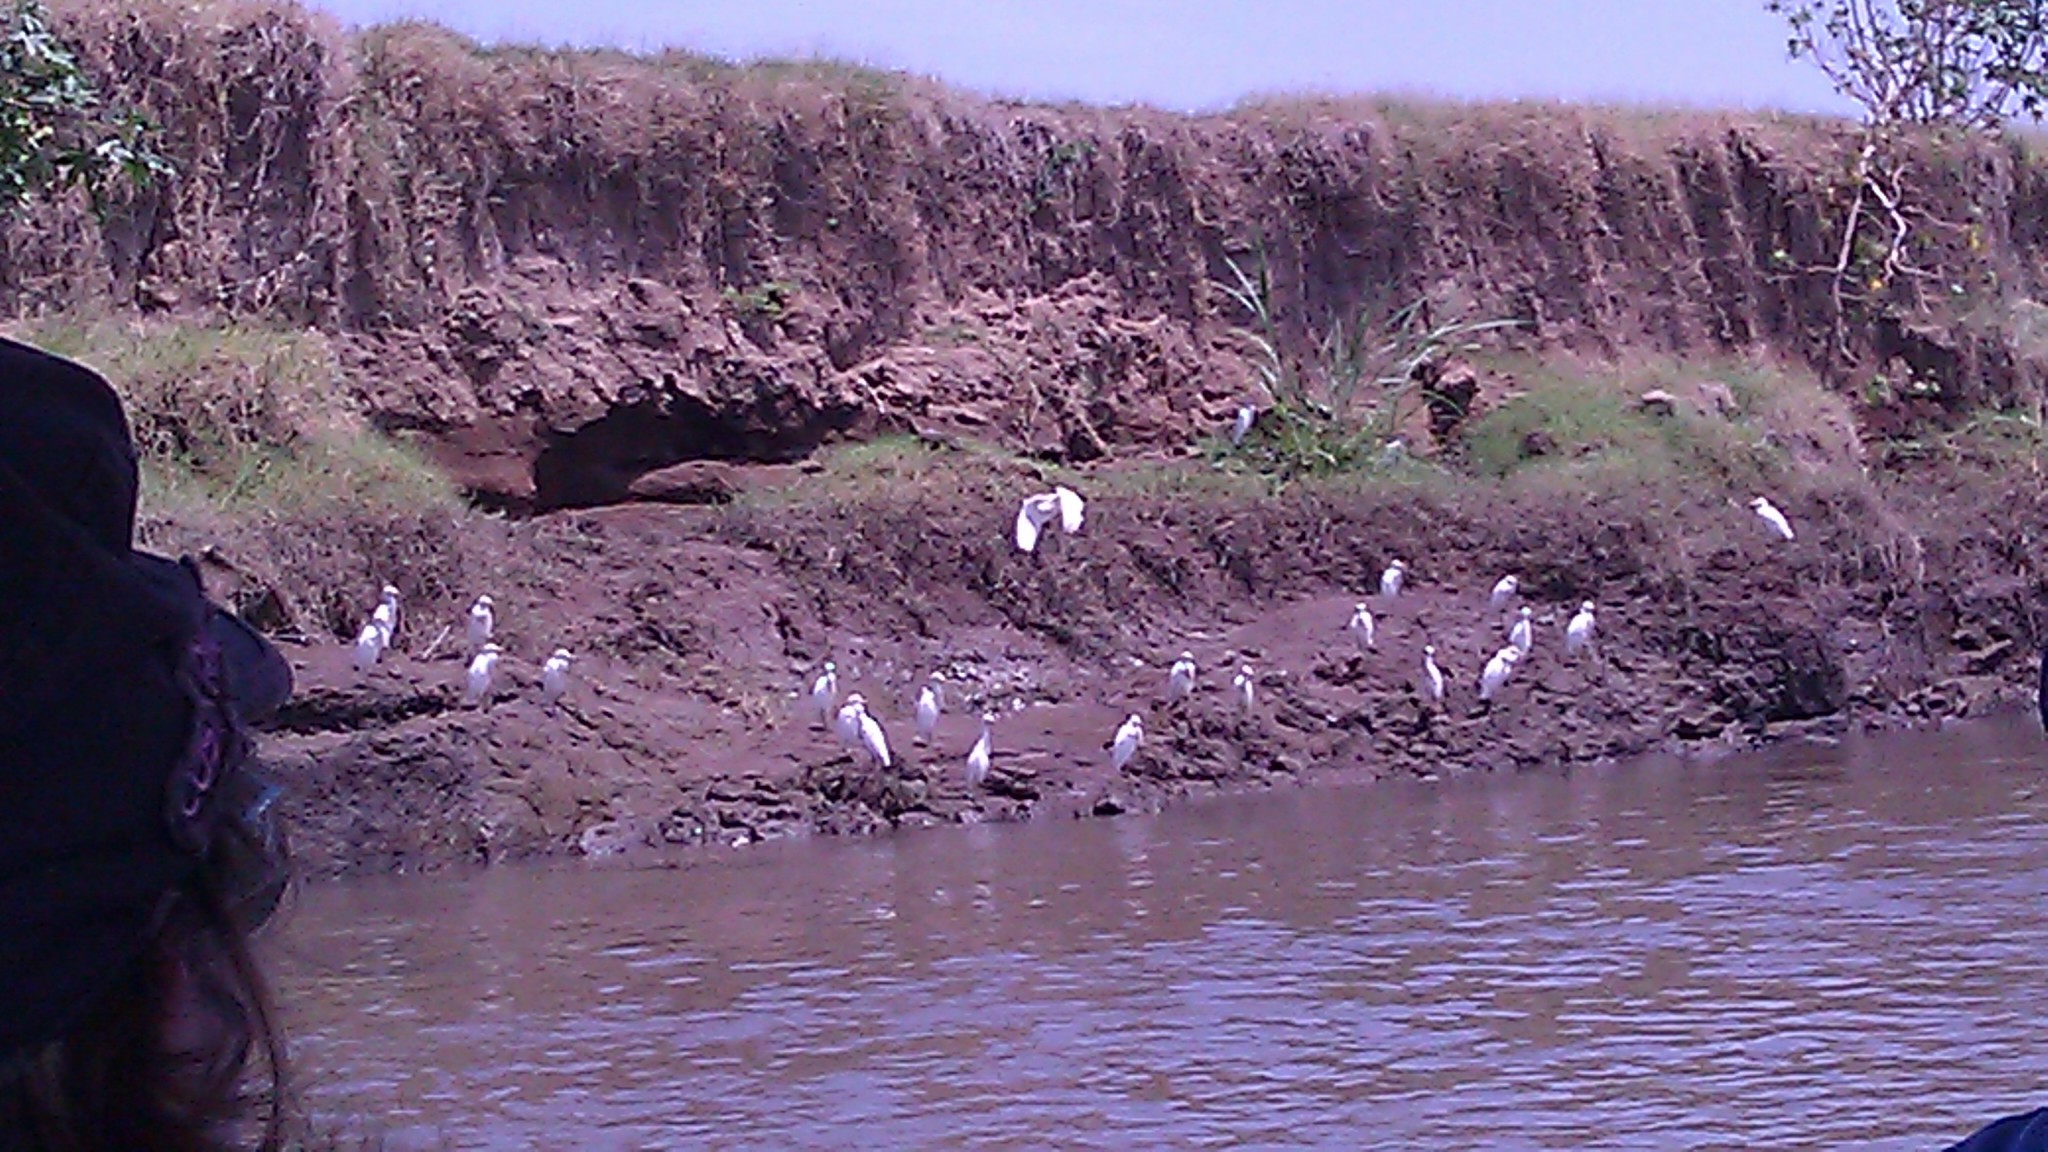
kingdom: Animalia
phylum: Chordata
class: Aves
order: Pelecaniformes
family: Ardeidae
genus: Bubulcus
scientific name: Bubulcus ibis
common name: Cattle egret
